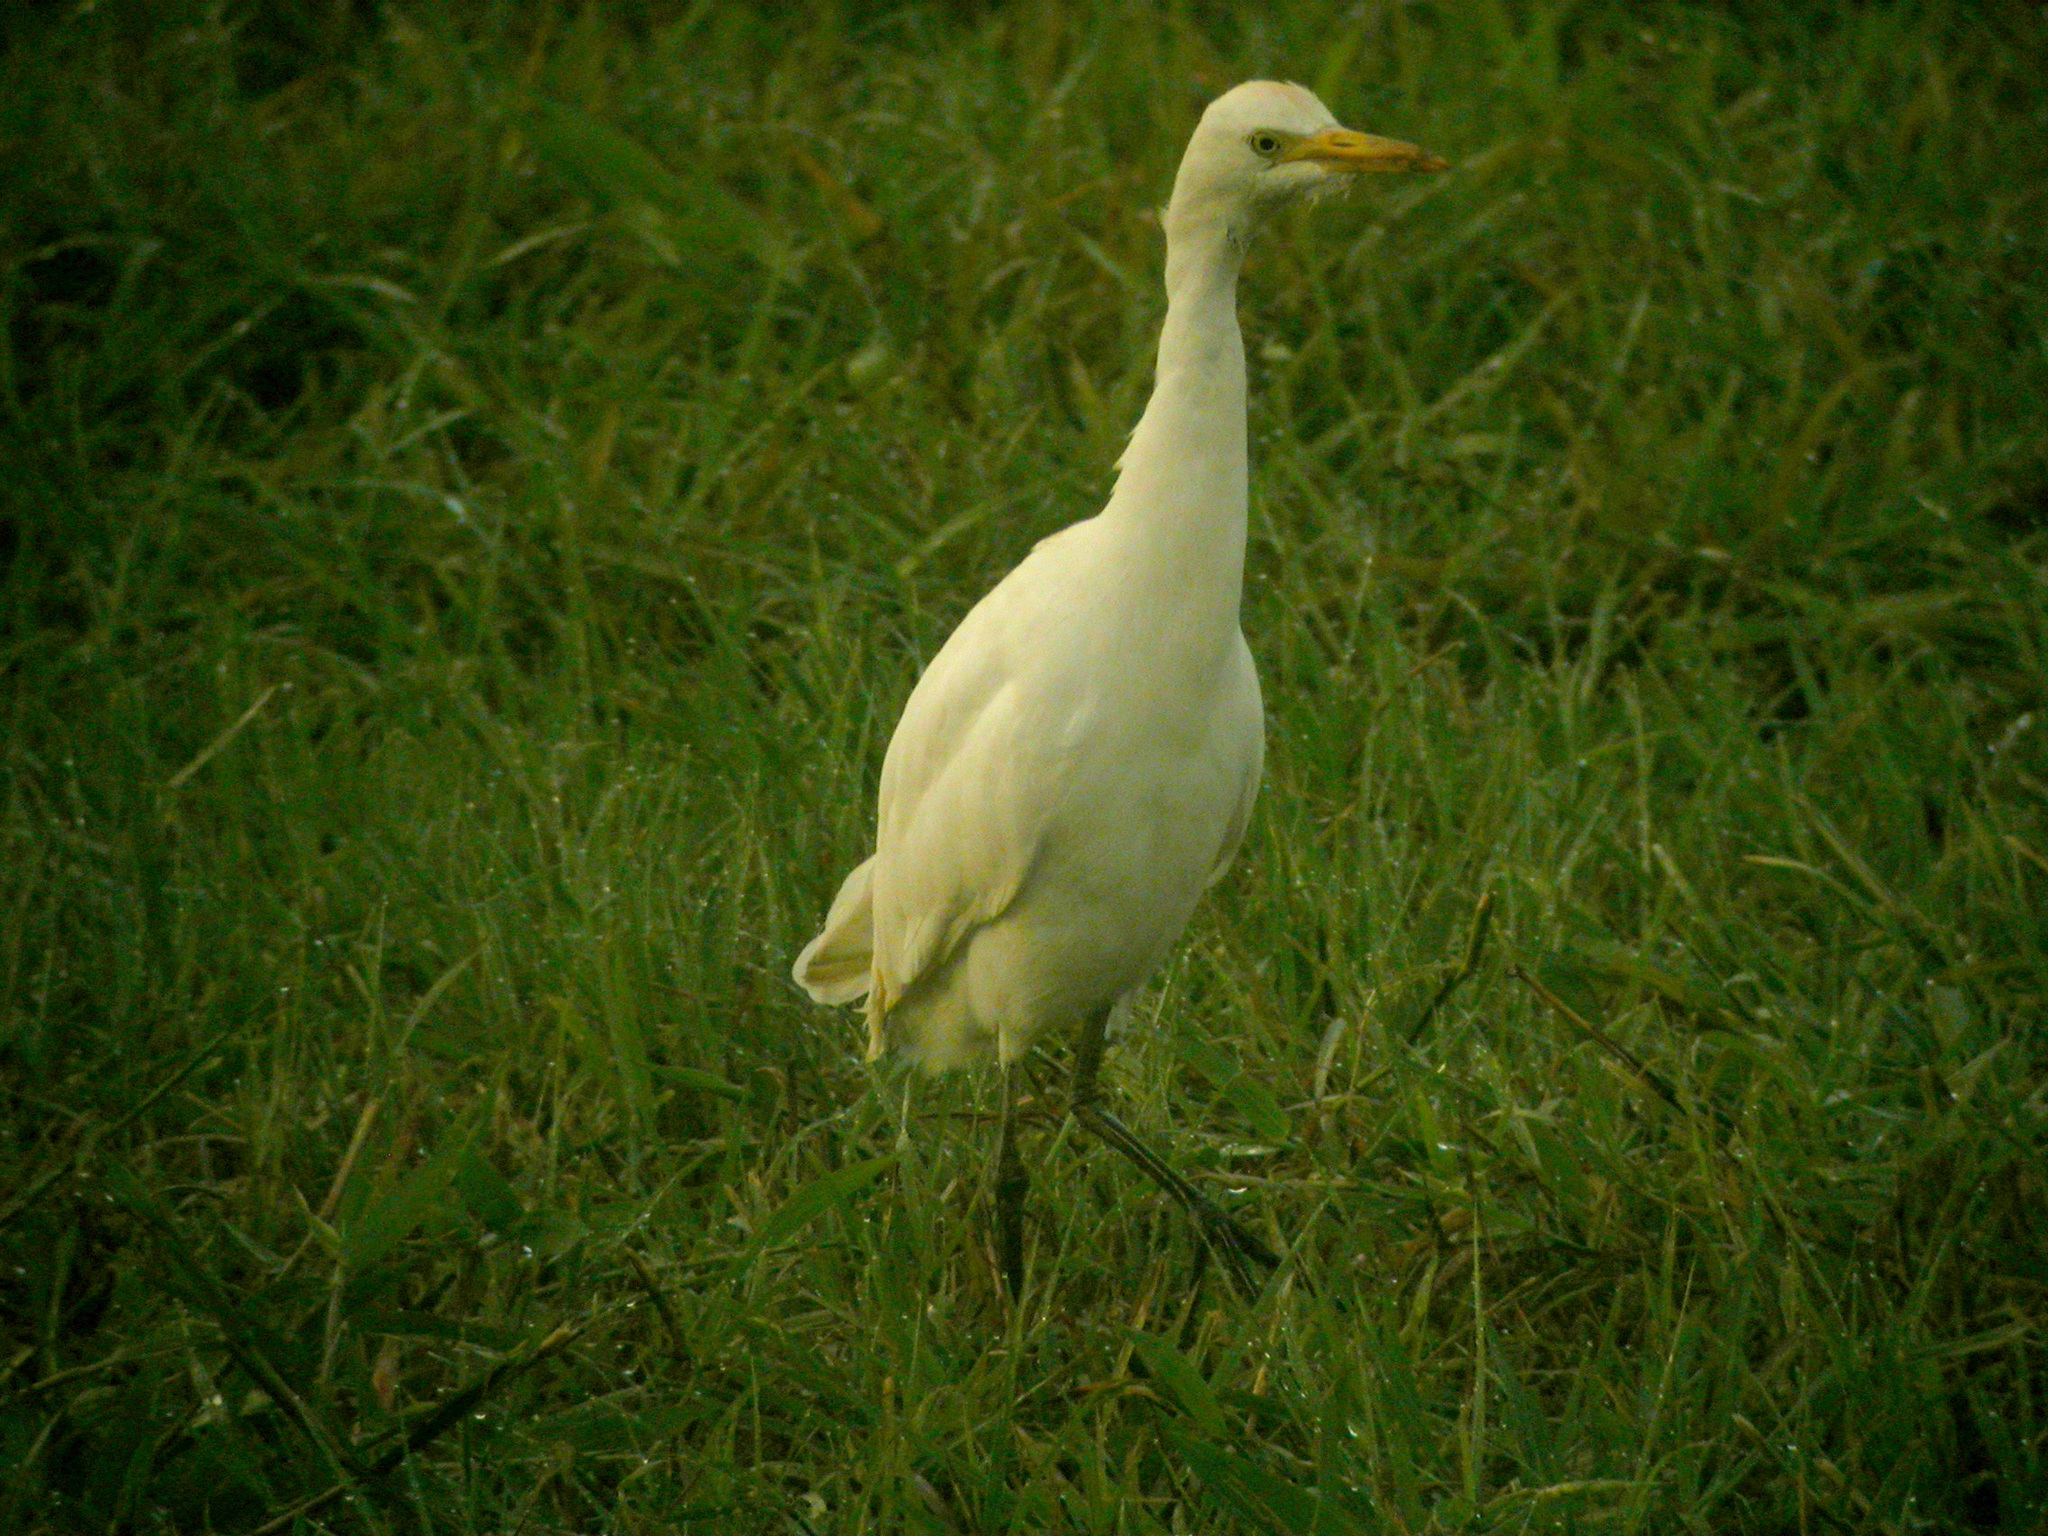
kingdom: Animalia
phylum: Chordata
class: Aves
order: Pelecaniformes
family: Ardeidae
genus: Bubulcus
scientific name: Bubulcus ibis
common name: Cattle egret
